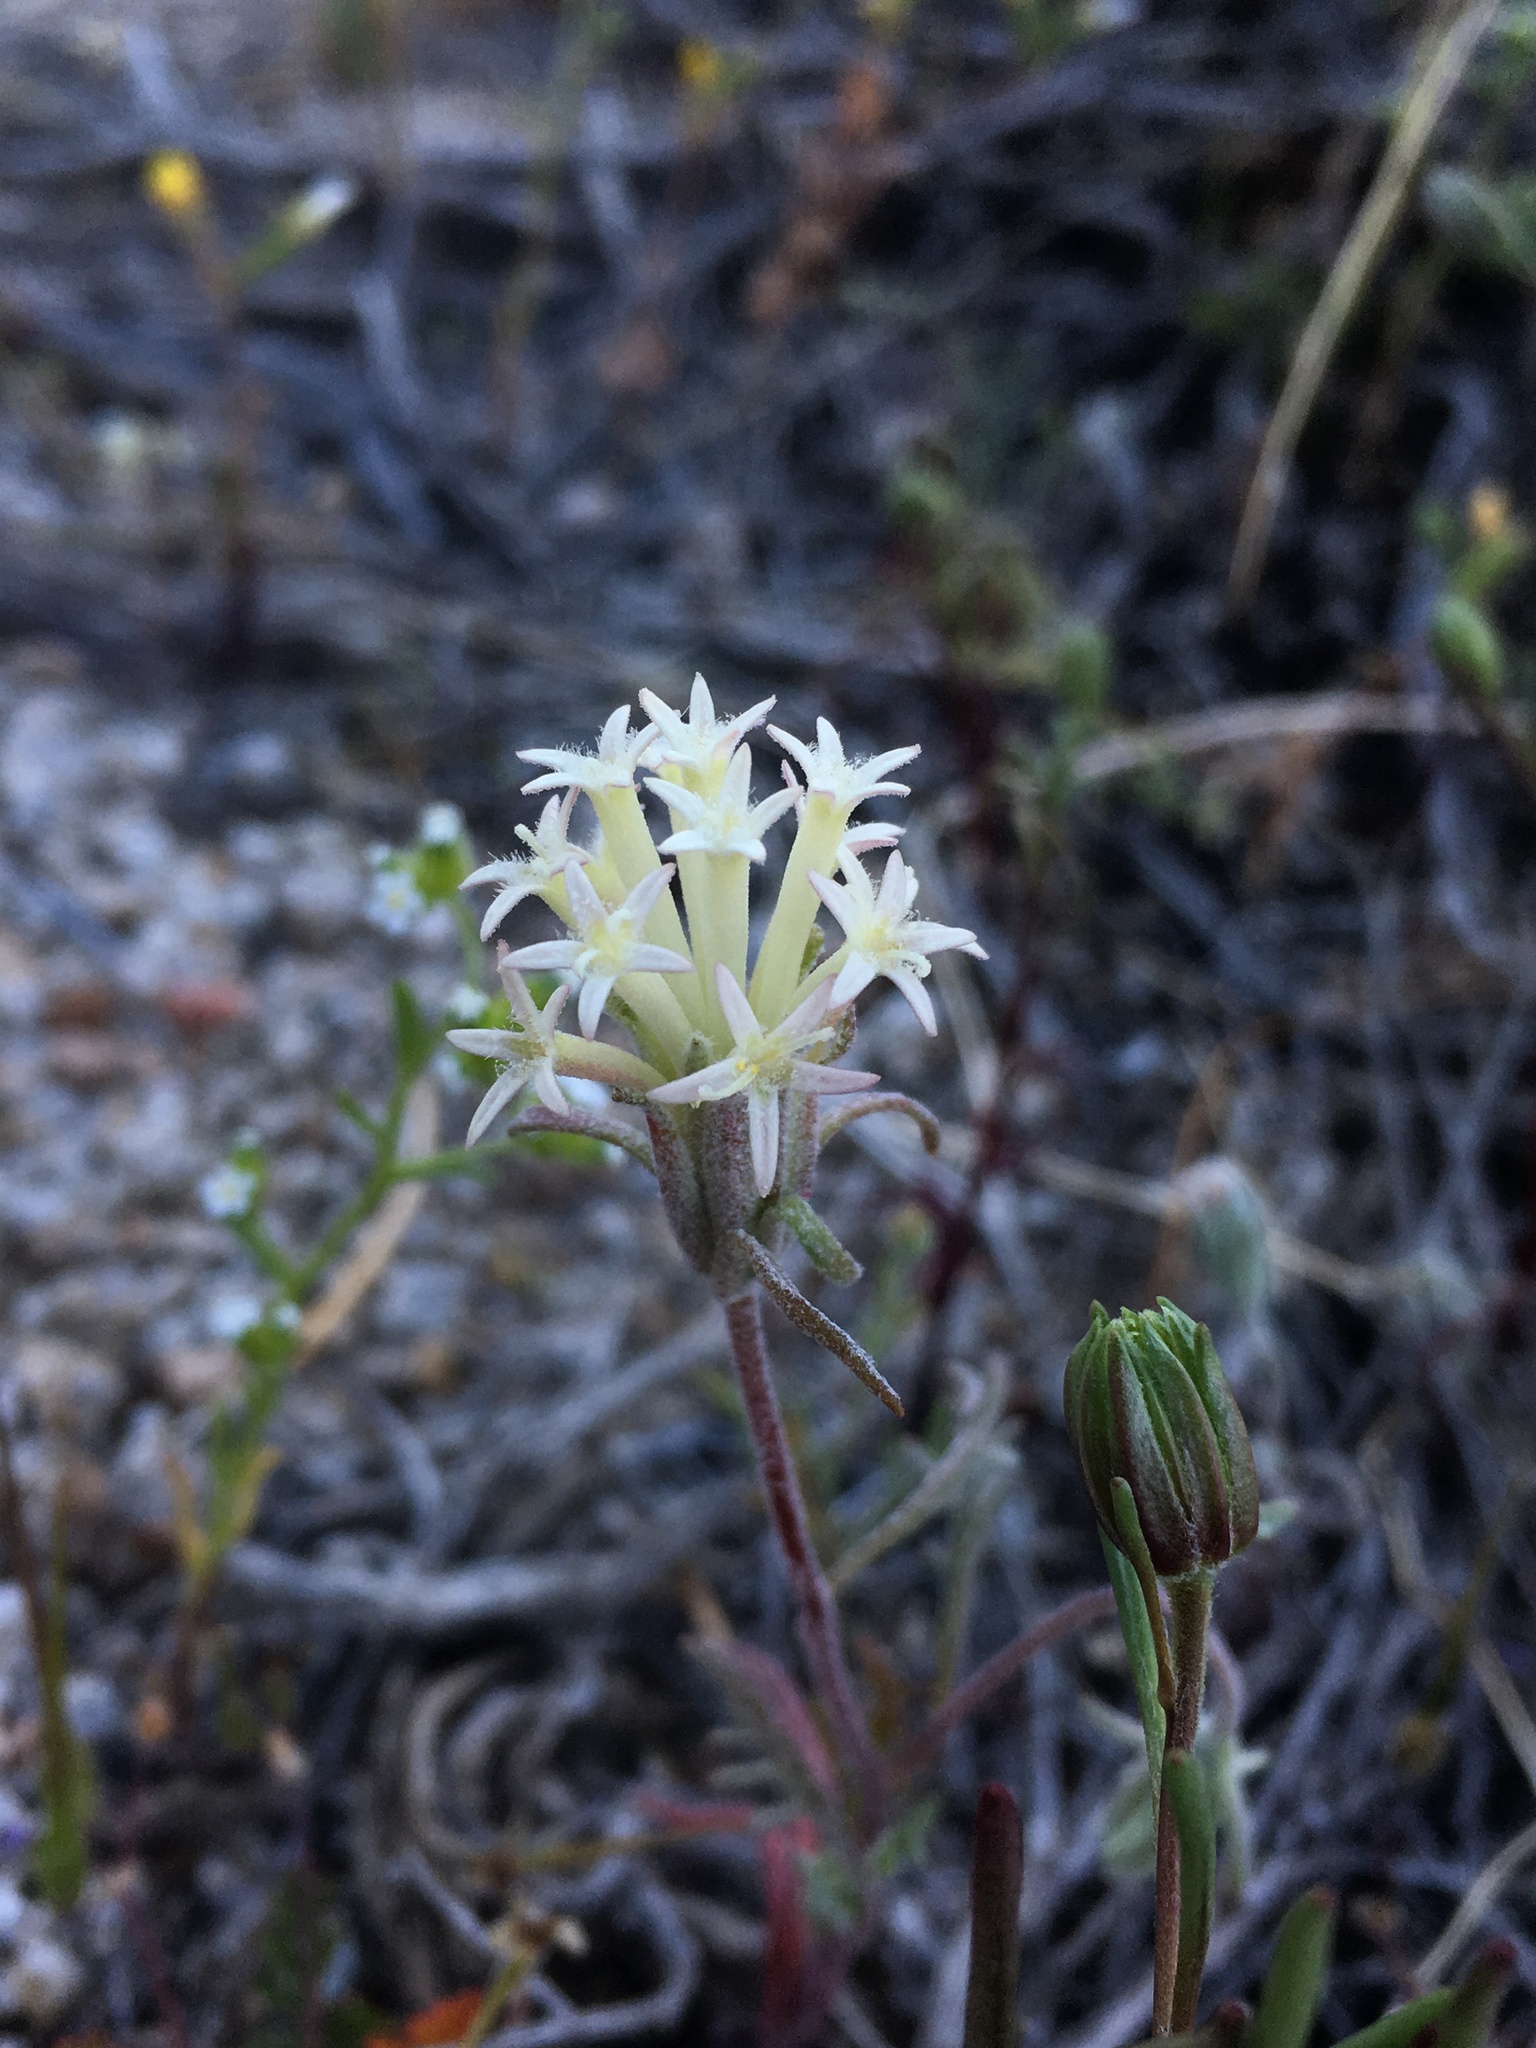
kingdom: Plantae
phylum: Tracheophyta
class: Magnoliopsida
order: Asterales
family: Asteraceae
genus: Chaenactis
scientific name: Chaenactis macrantha
